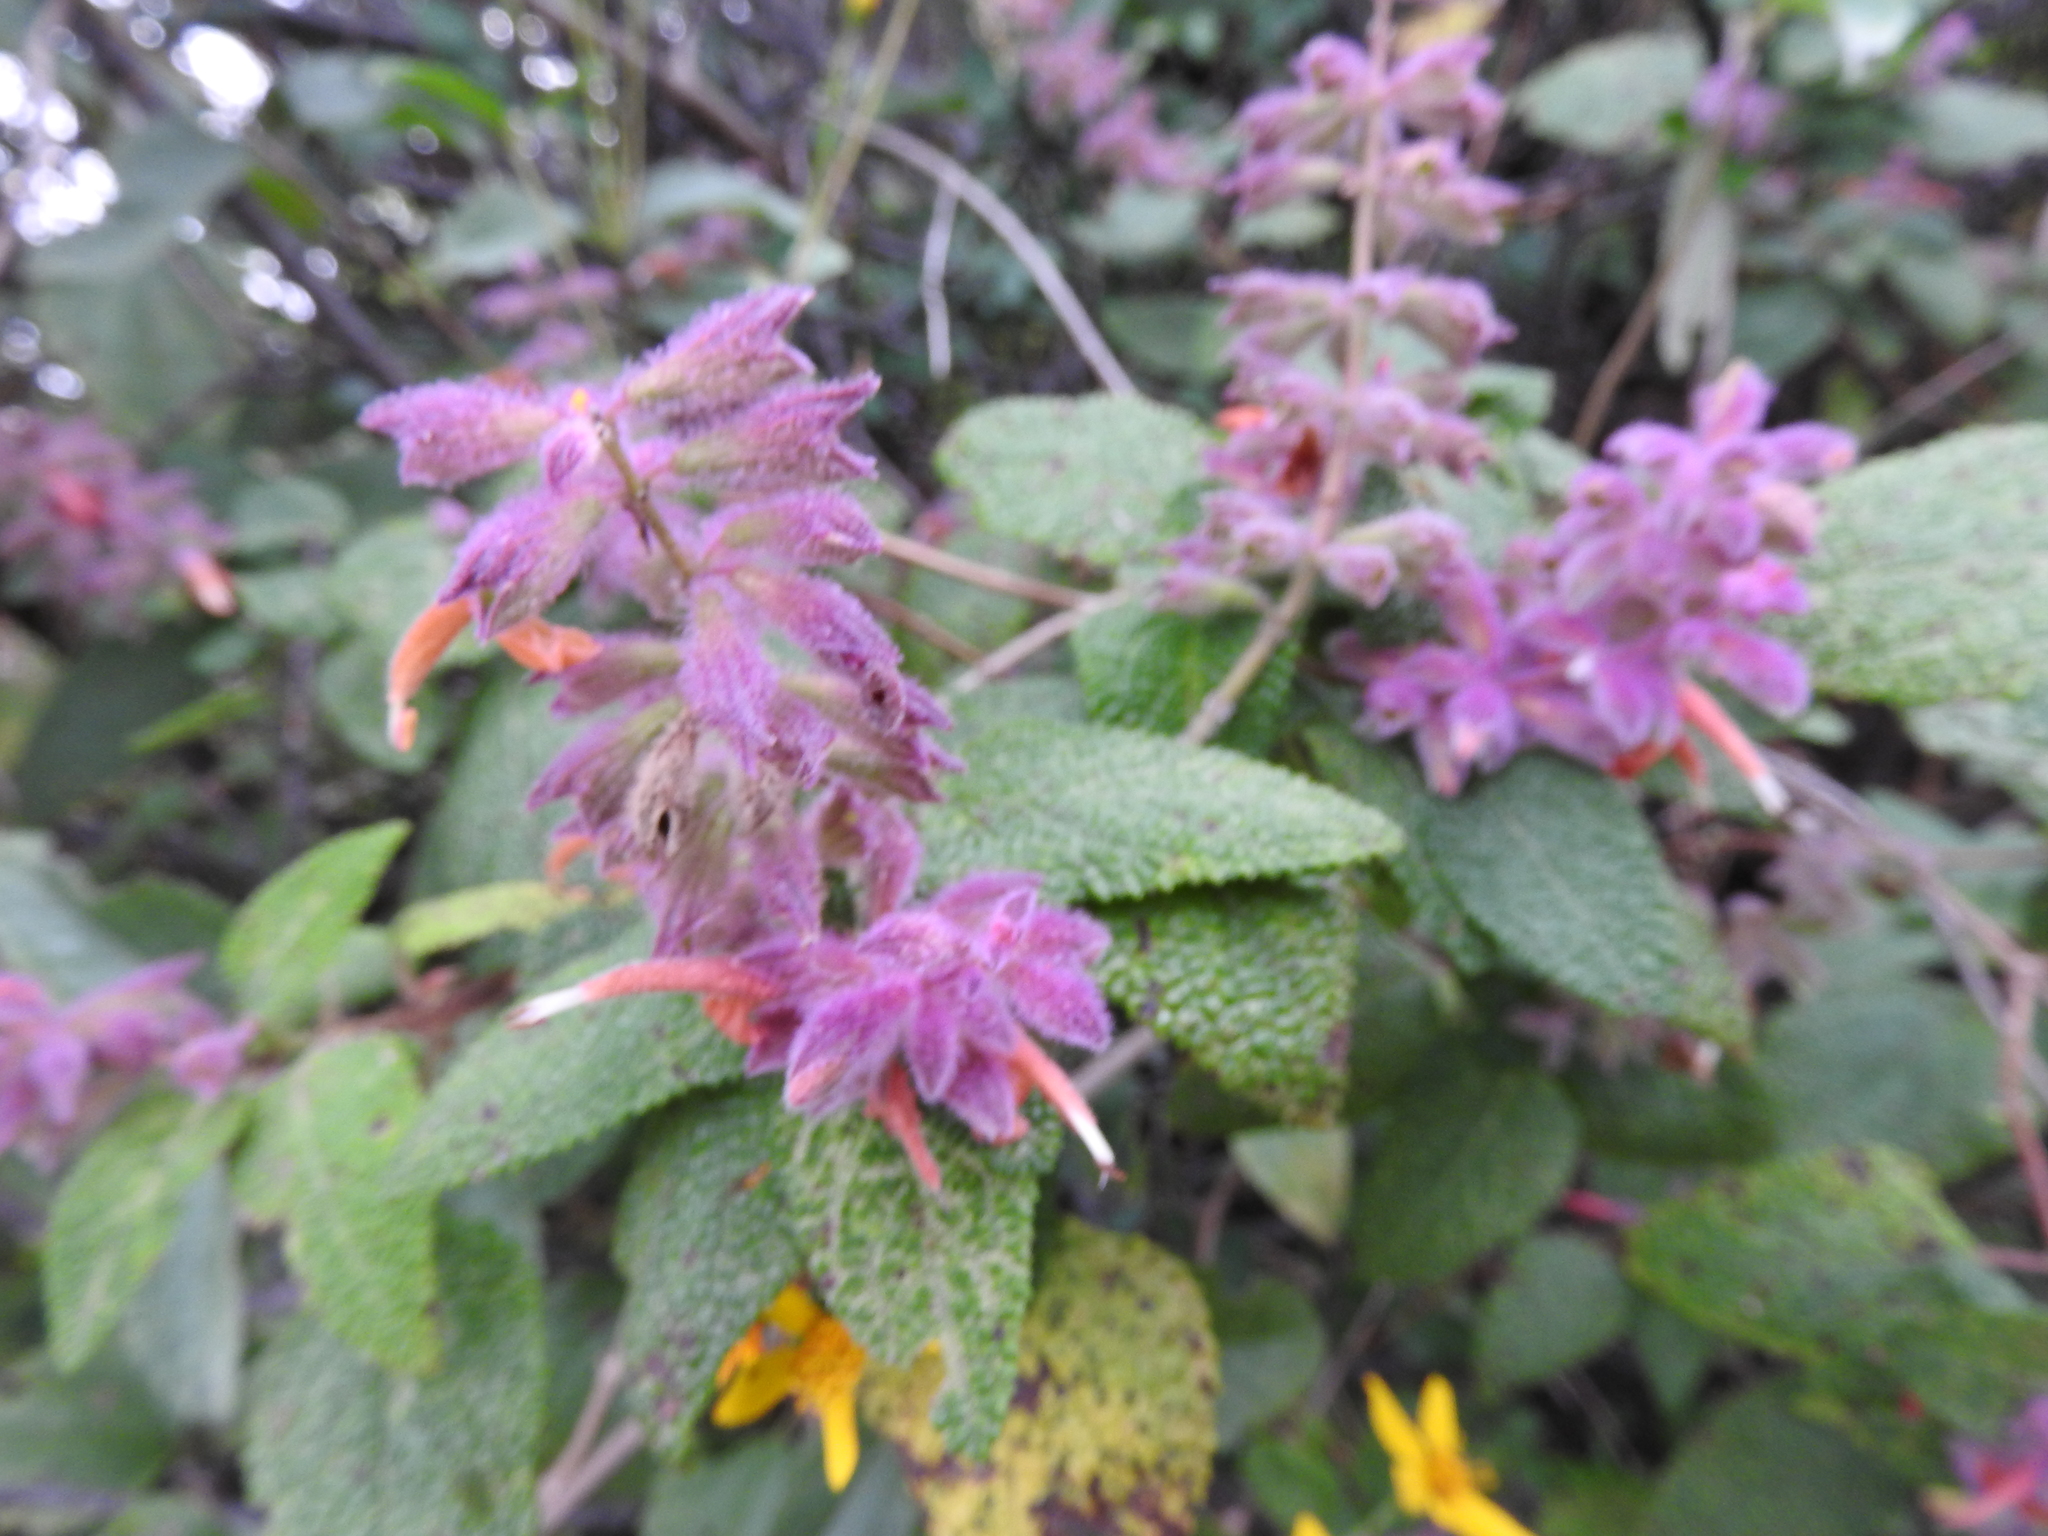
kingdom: Plantae
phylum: Tracheophyta
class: Magnoliopsida
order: Lamiales
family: Lamiaceae
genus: Salvia
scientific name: Salvia lasiantha
